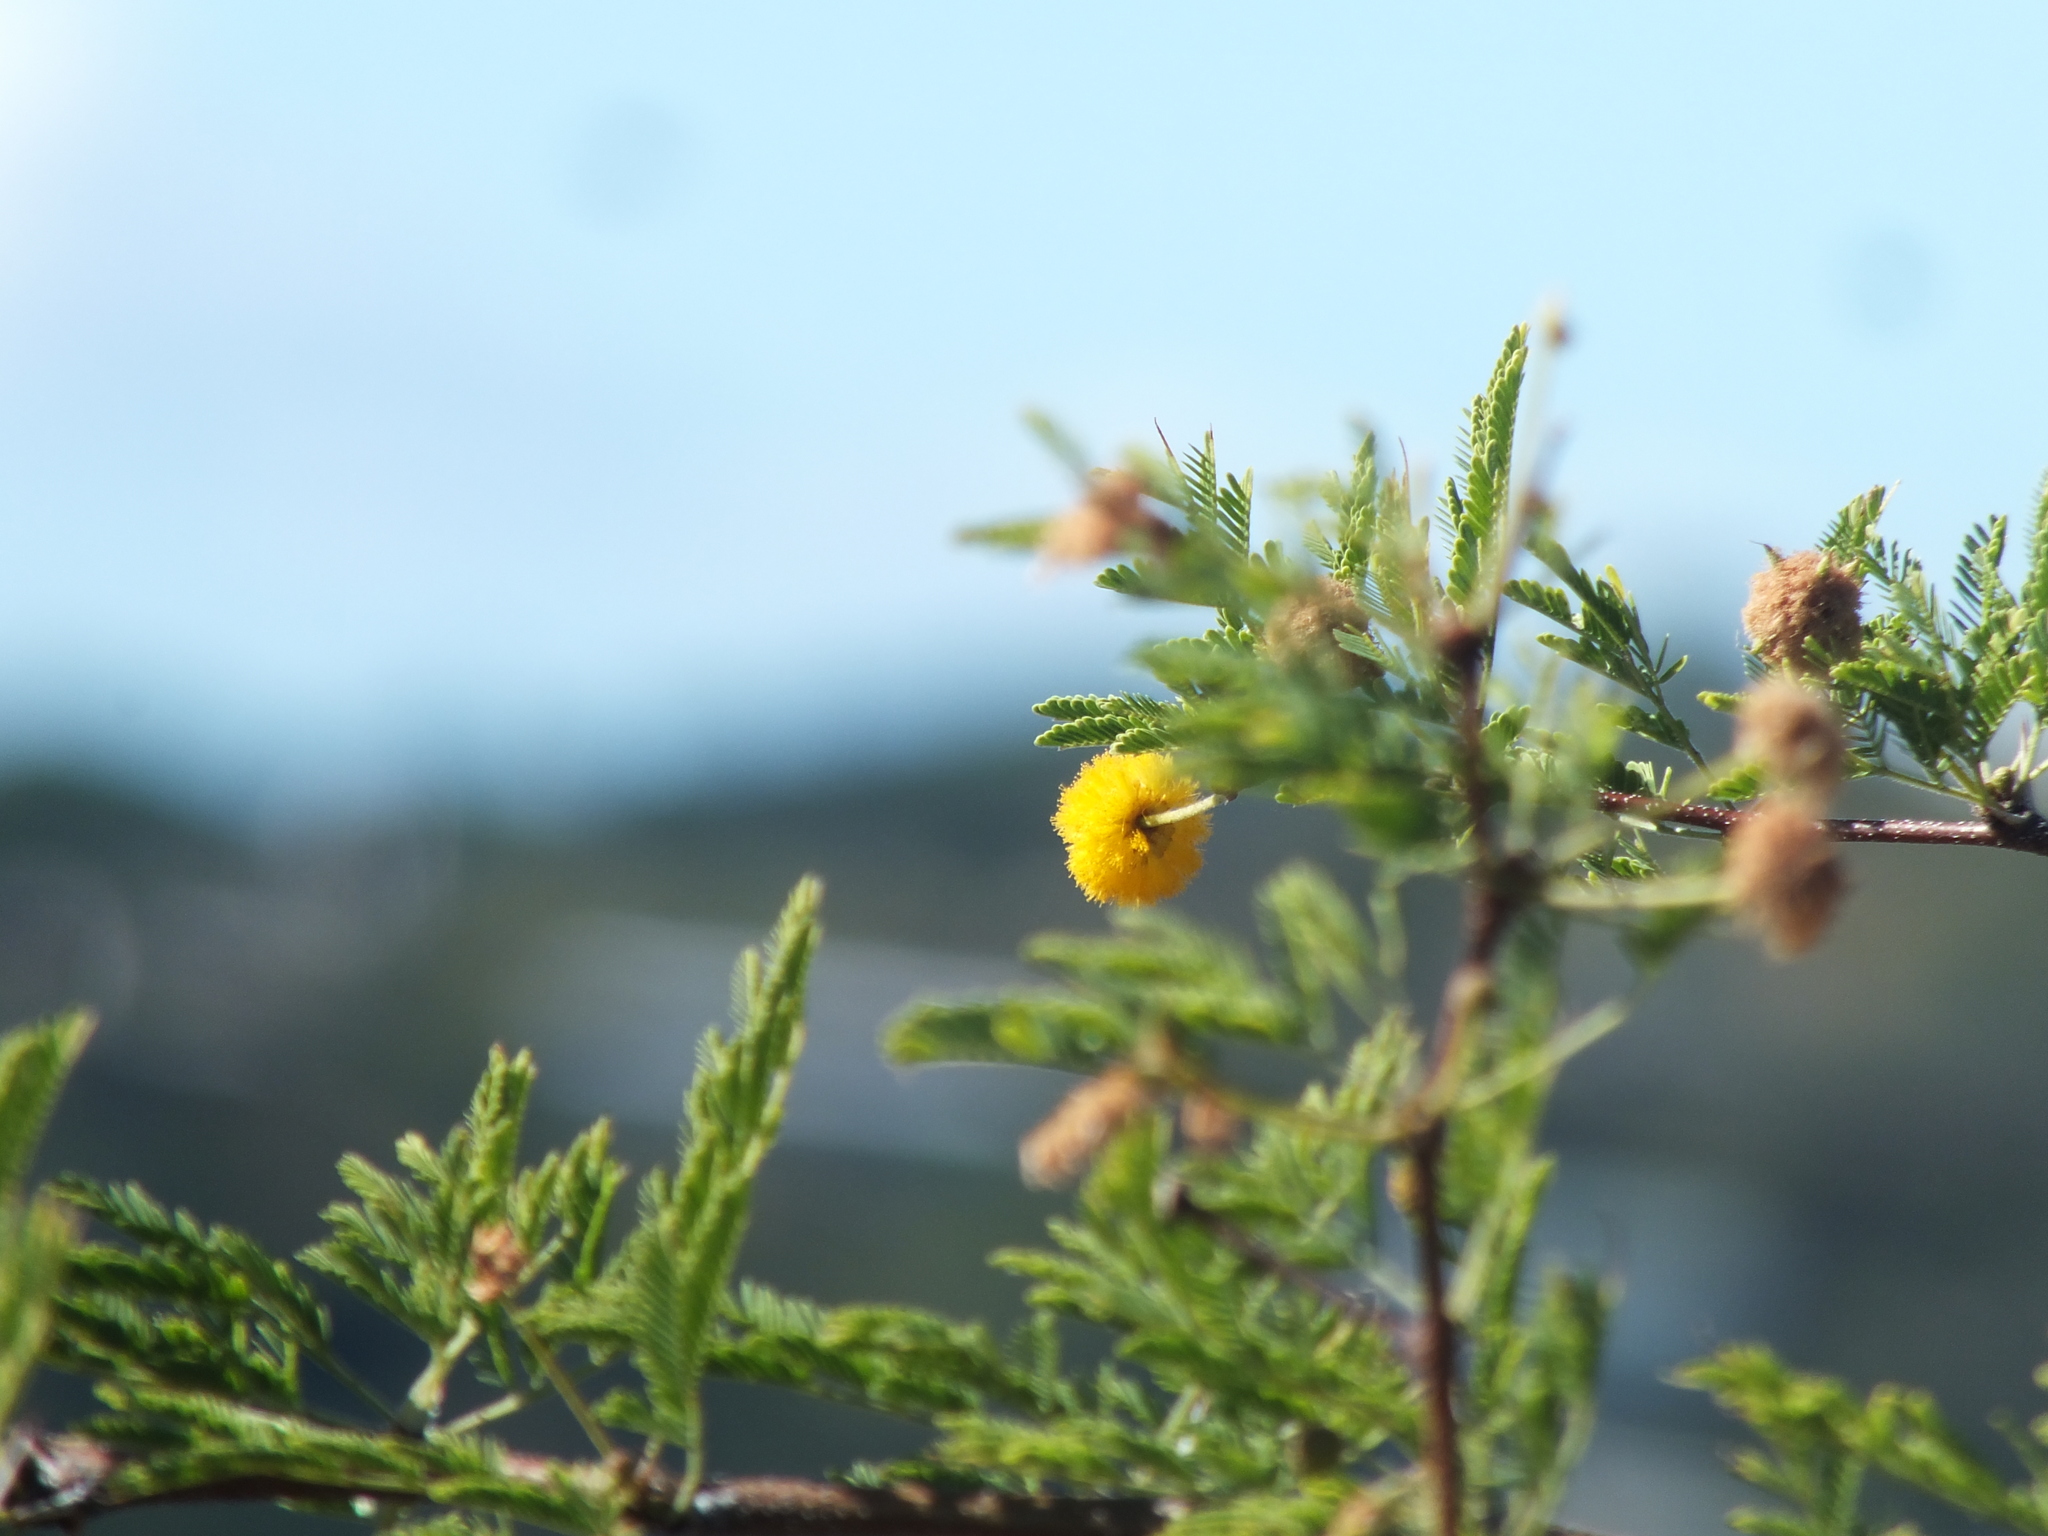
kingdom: Plantae
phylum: Tracheophyta
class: Magnoliopsida
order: Fabales
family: Fabaceae
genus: Vachellia
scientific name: Vachellia farnesiana
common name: Sweet acacia
